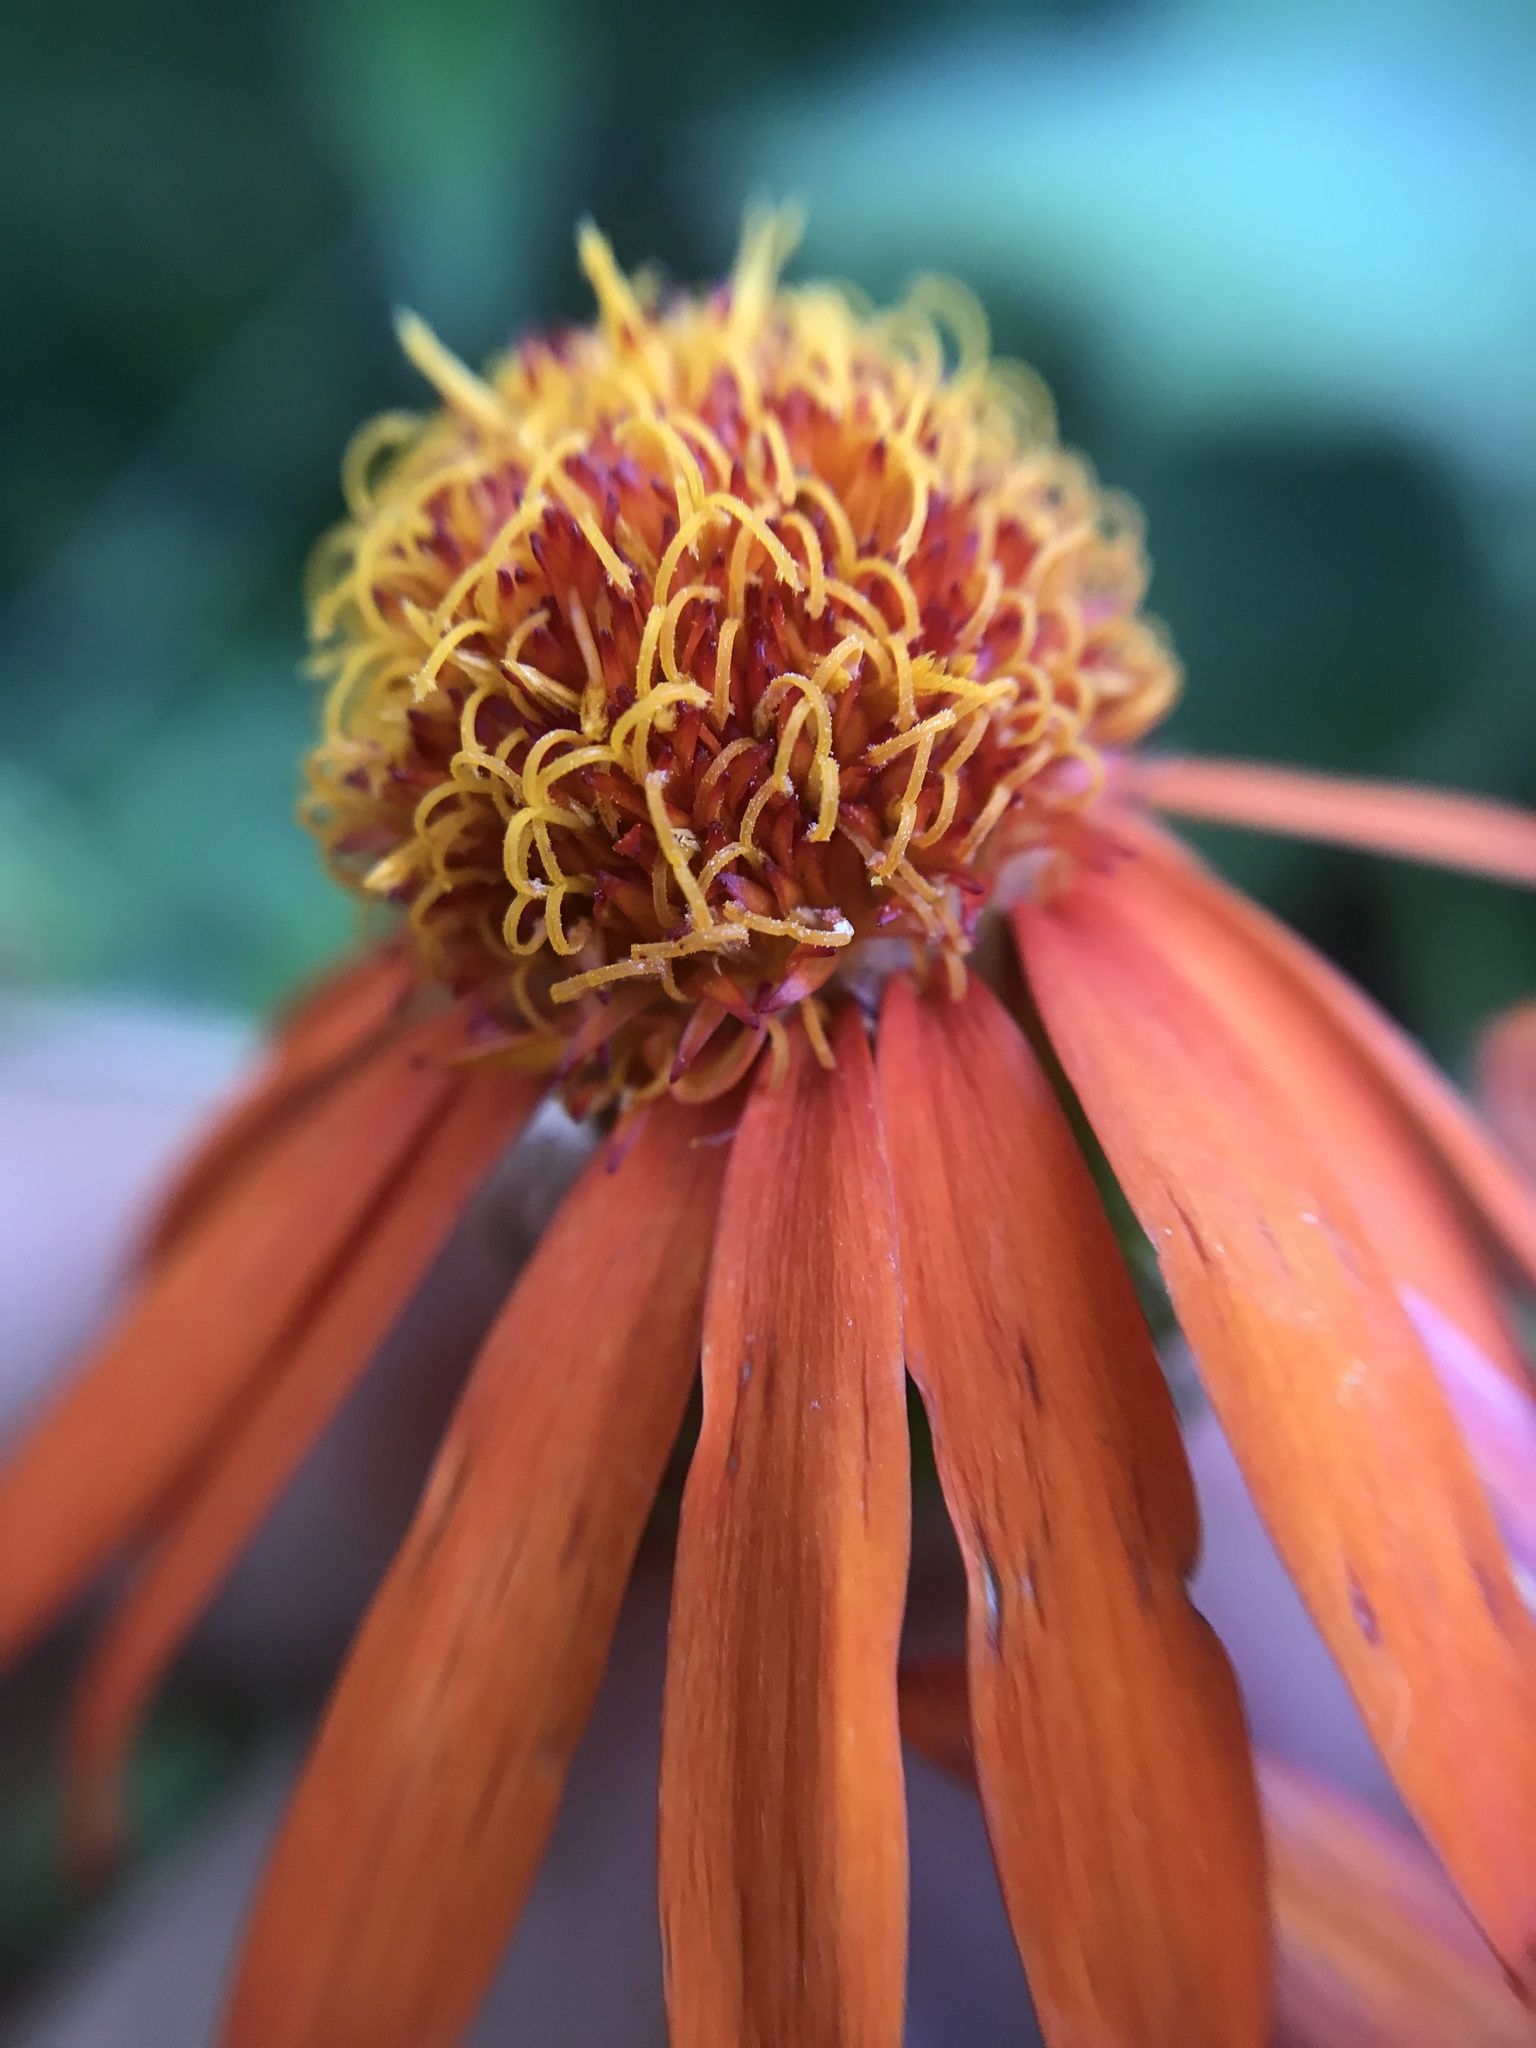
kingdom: Plantae
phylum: Tracheophyta
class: Magnoliopsida
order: Asterales
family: Asteraceae
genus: Pseudogynoxys
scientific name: Pseudogynoxys cumingii
